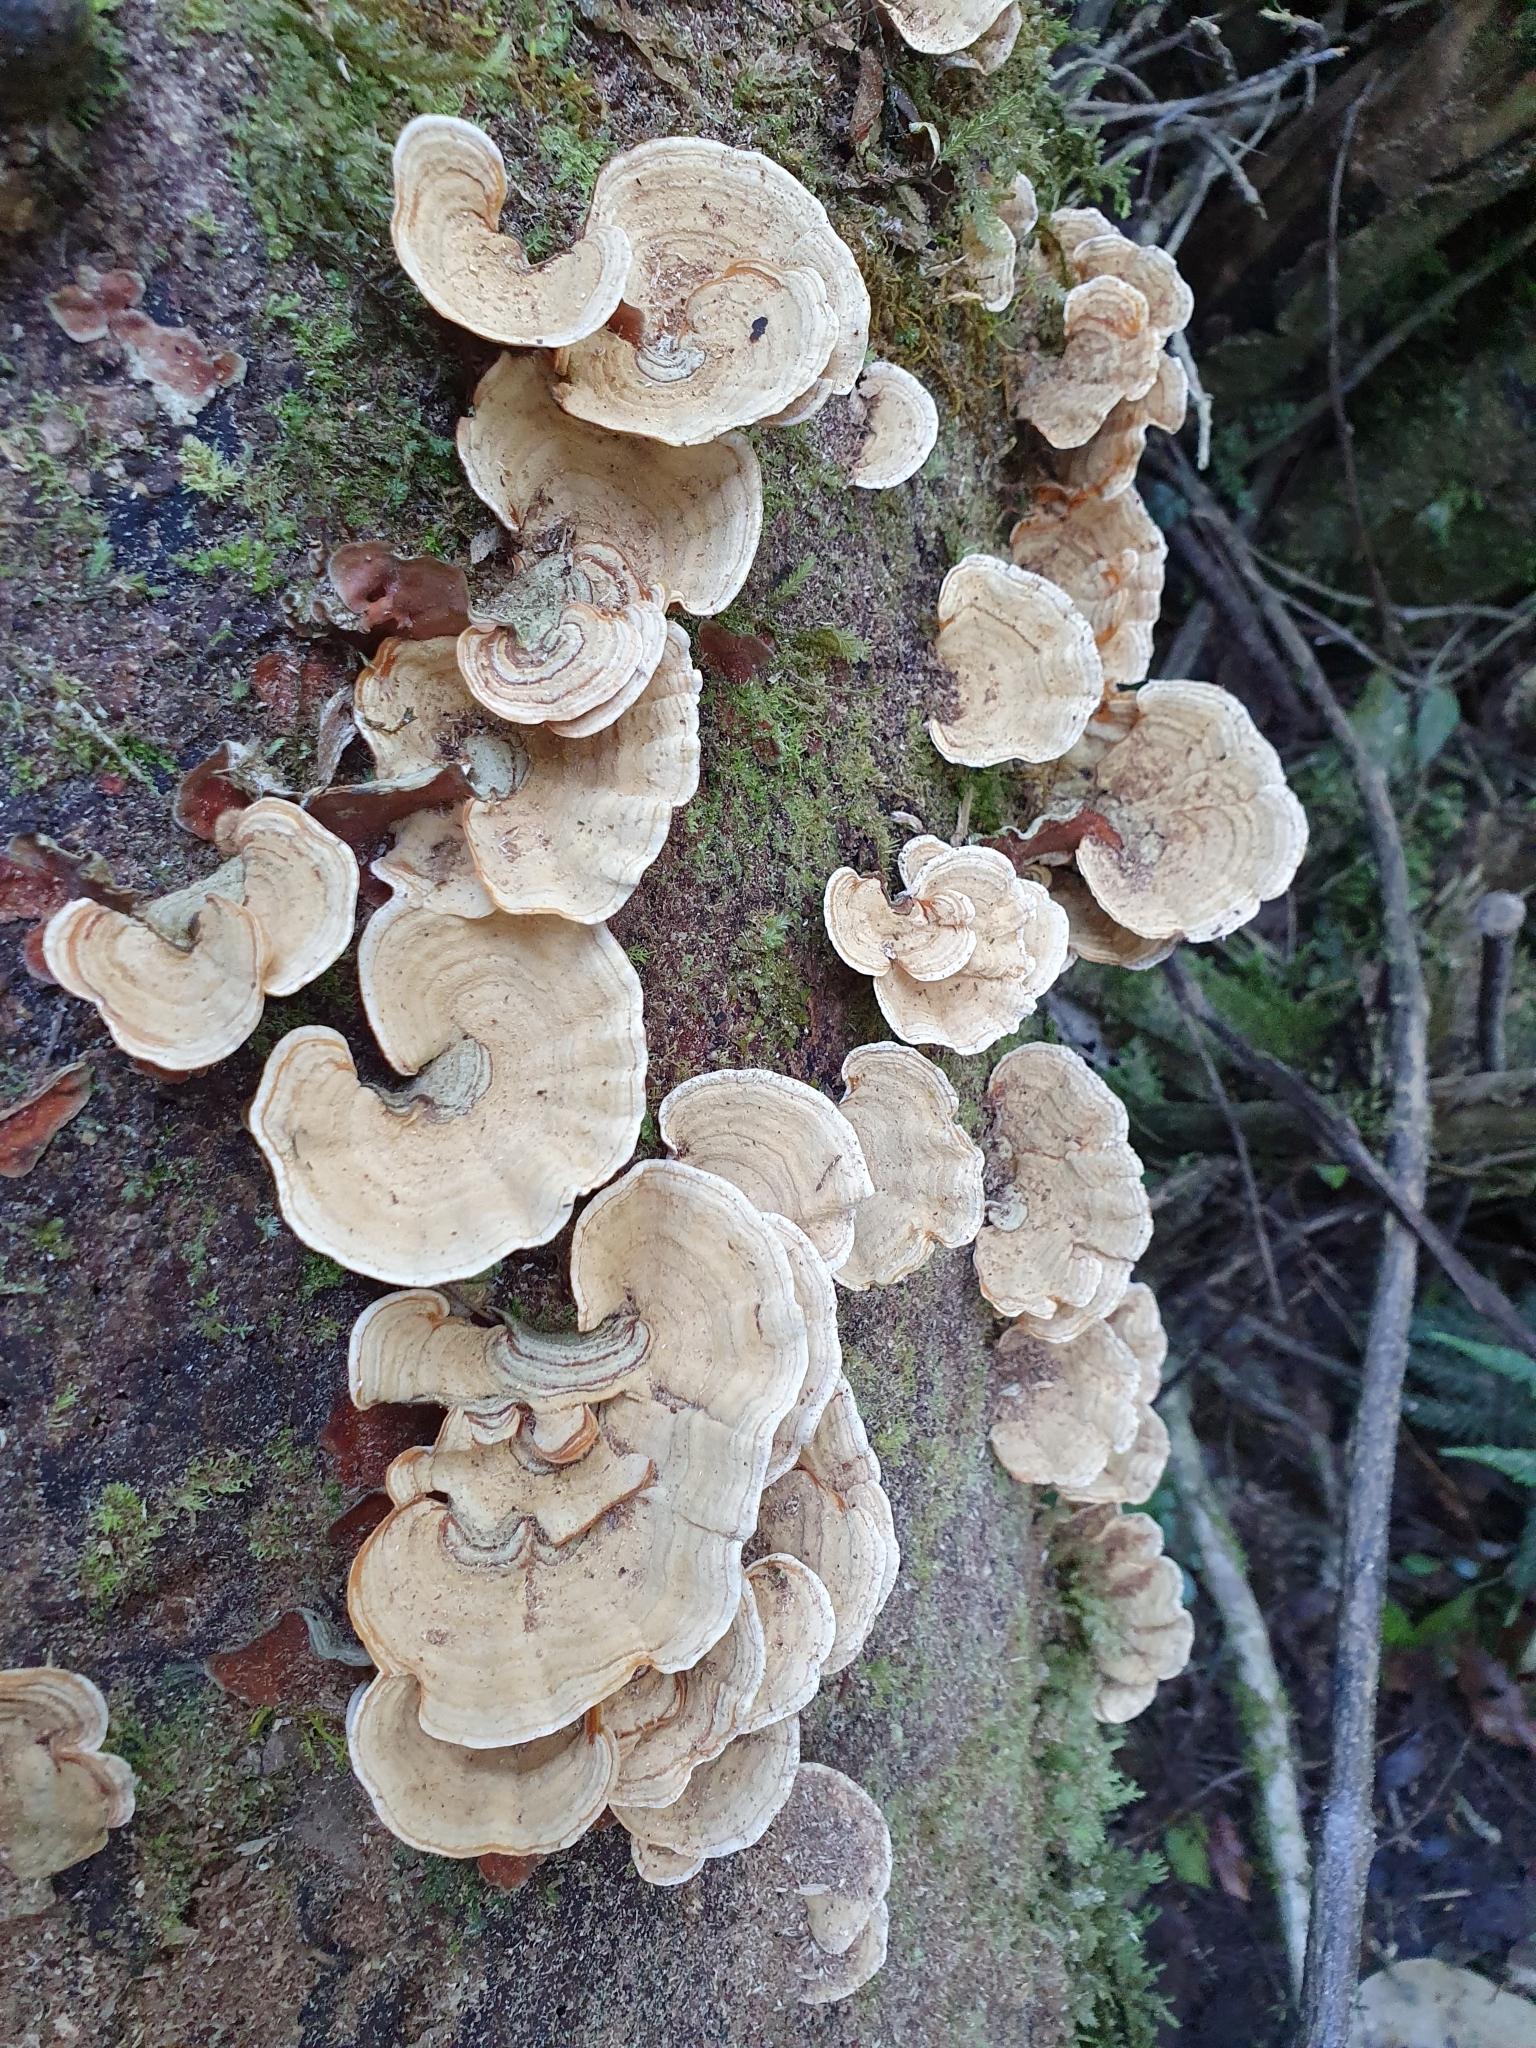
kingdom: Fungi
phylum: Basidiomycota
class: Agaricomycetes
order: Russulales
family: Stereaceae
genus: Stereum
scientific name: Stereum versicolor
